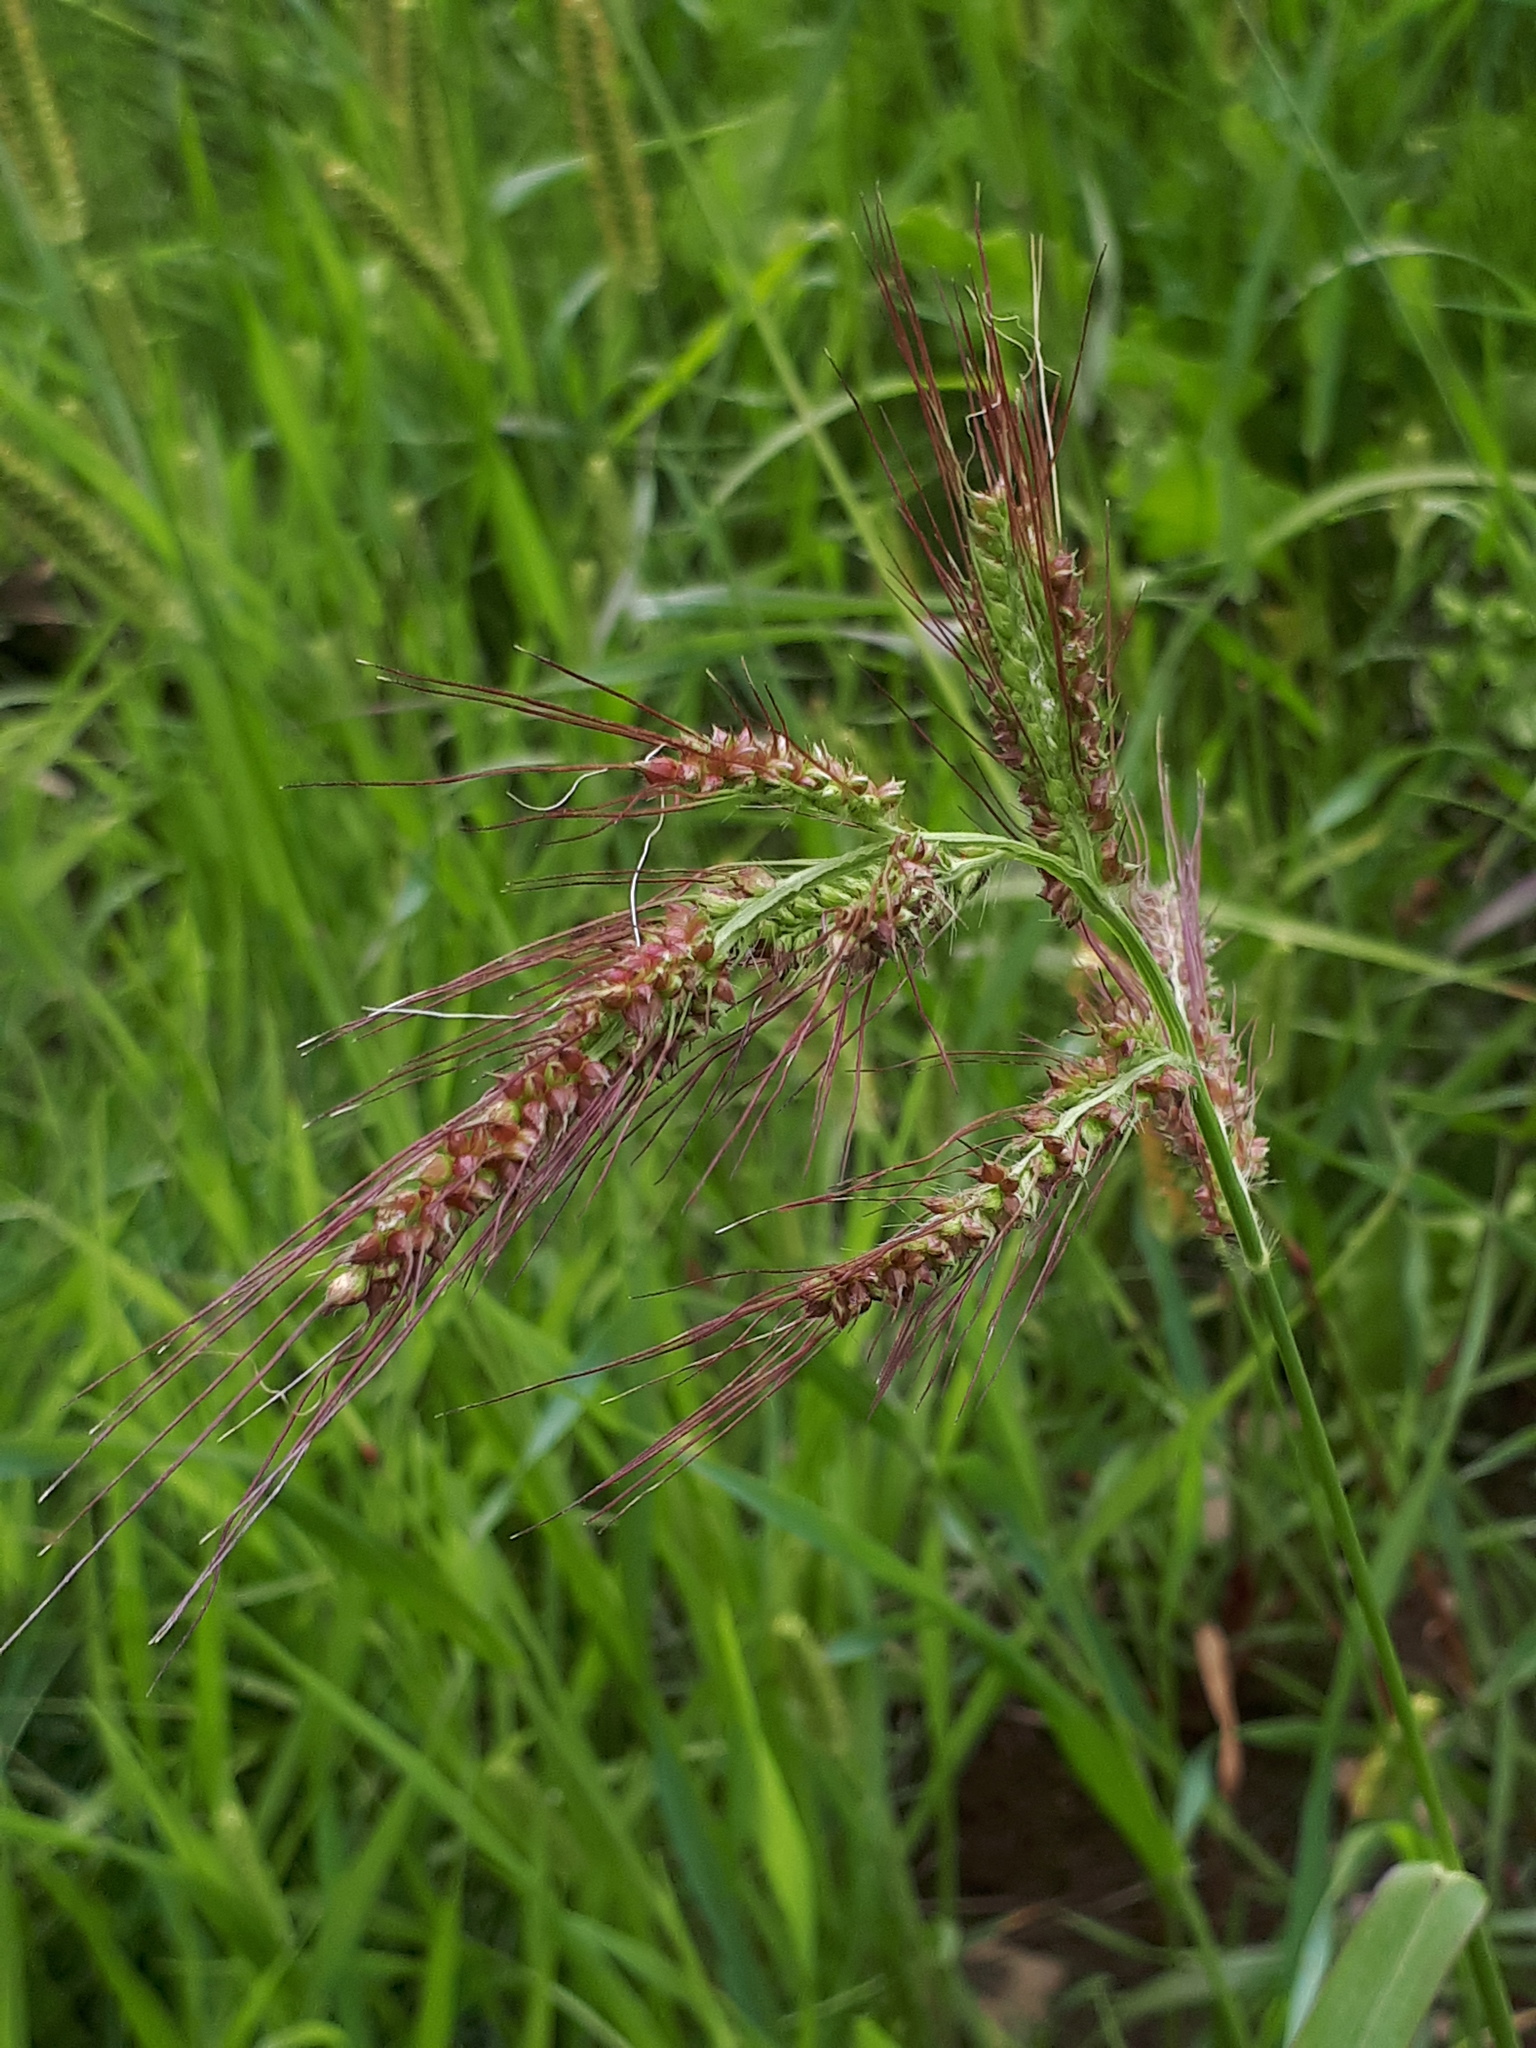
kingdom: Plantae
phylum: Tracheophyta
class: Liliopsida
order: Poales
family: Poaceae
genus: Echinochloa
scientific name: Echinochloa crus-galli
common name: Cockspur
